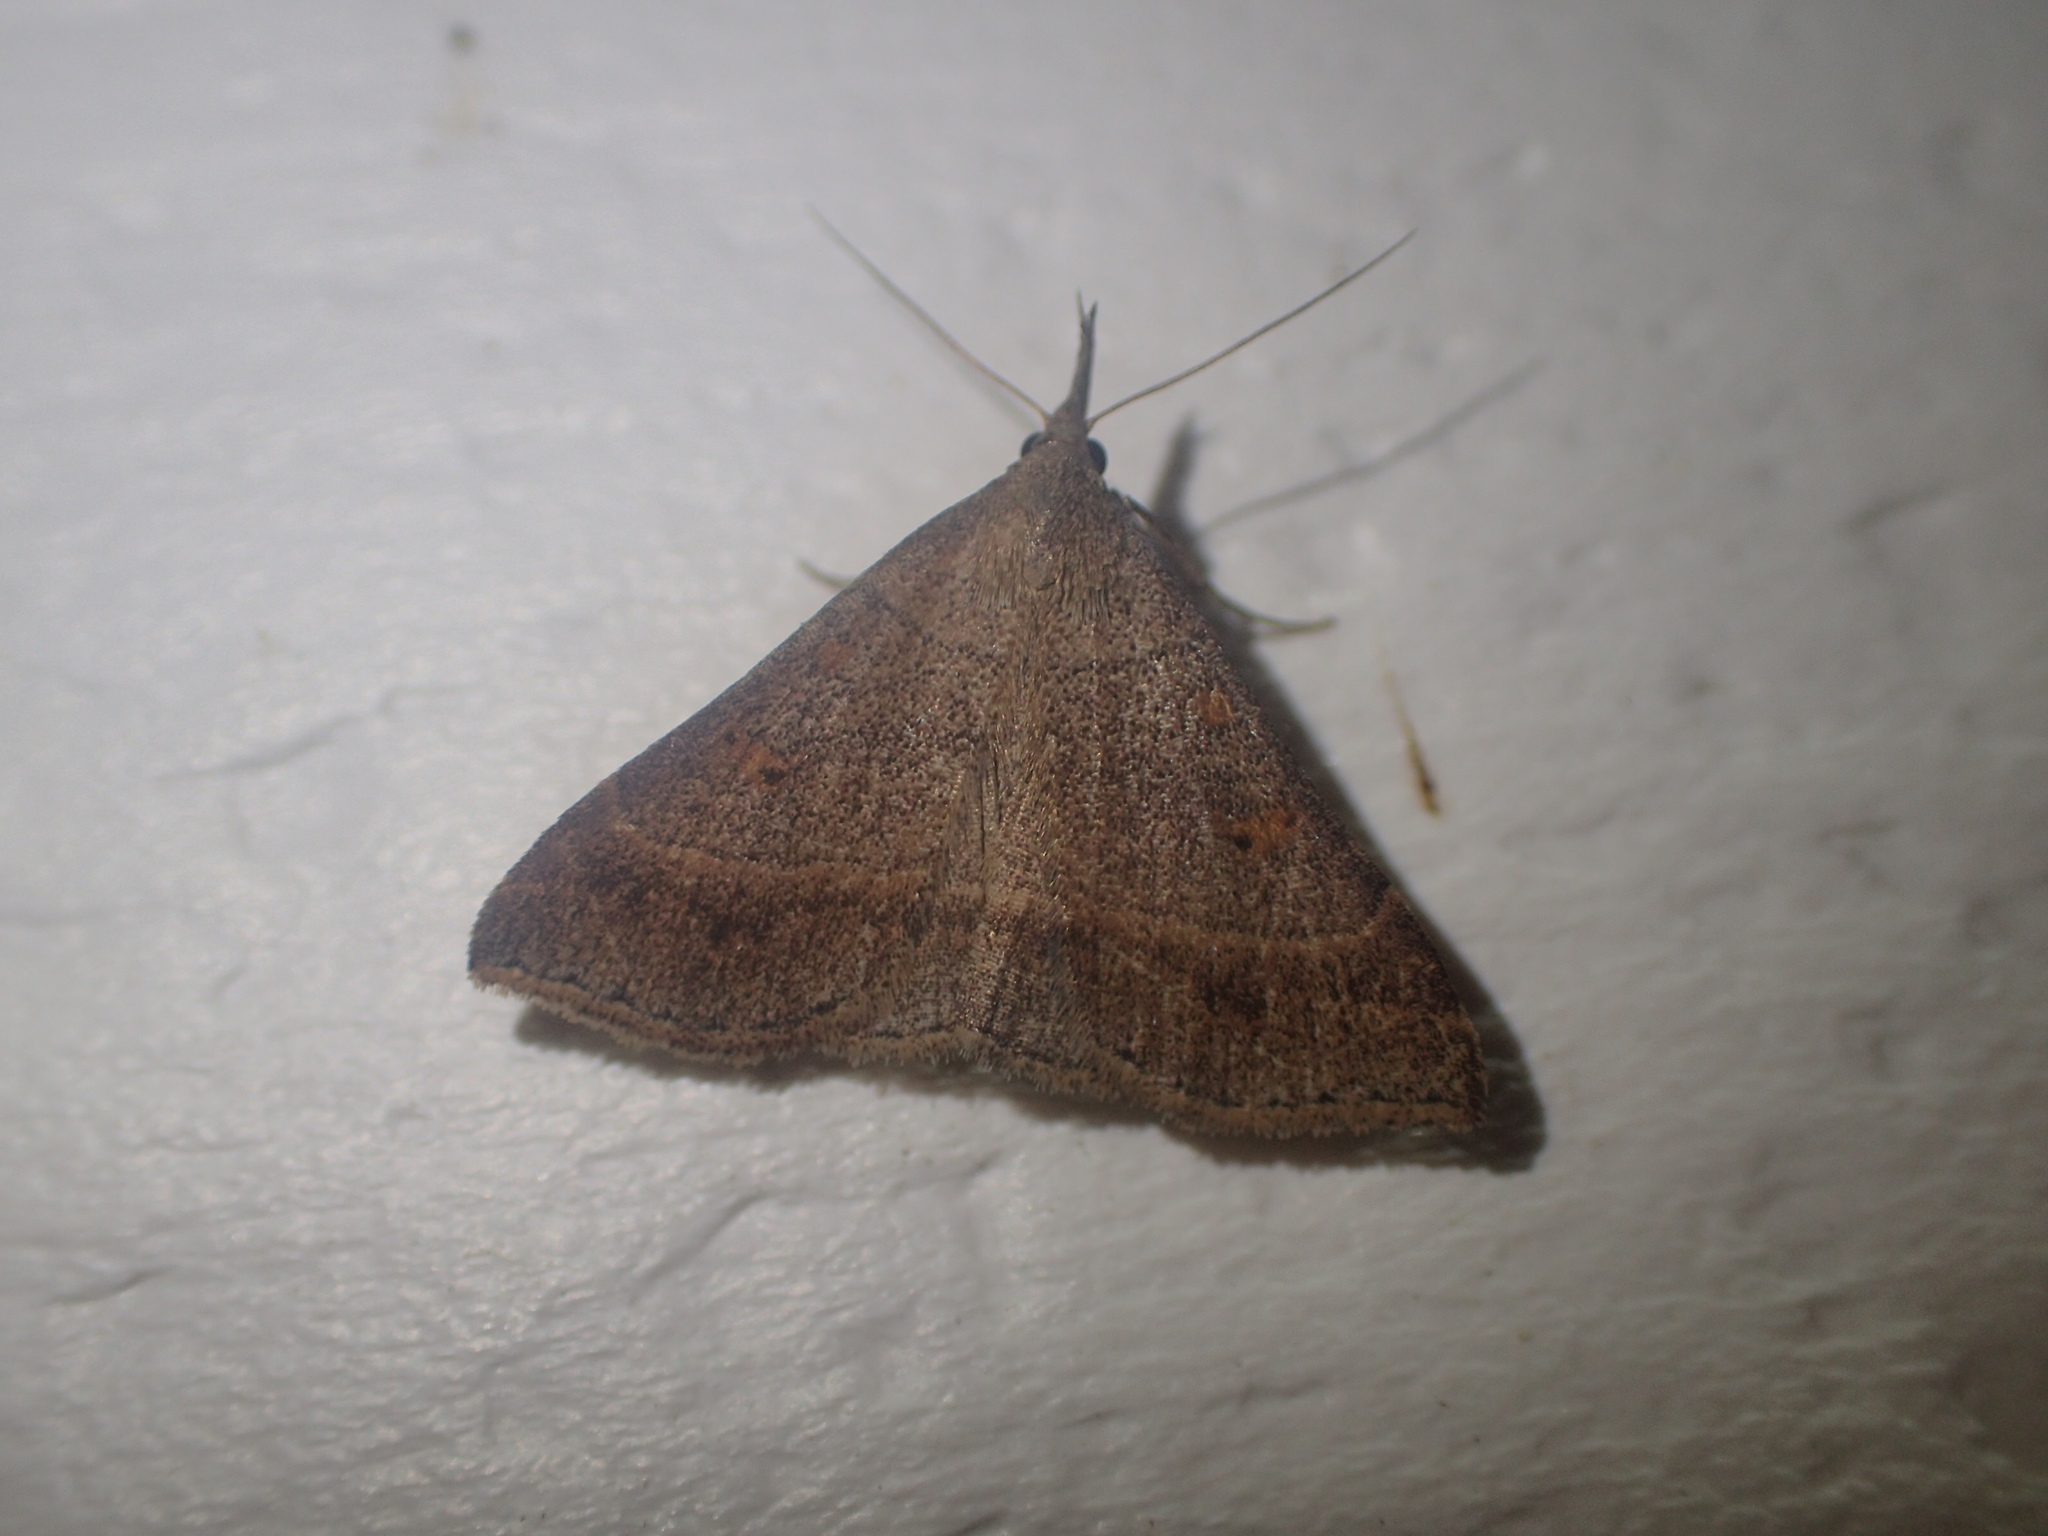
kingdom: Animalia
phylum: Arthropoda
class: Insecta
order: Lepidoptera
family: Erebidae
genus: Renia
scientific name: Renia flavipunctalis
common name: Yellow-spotted renia moth
